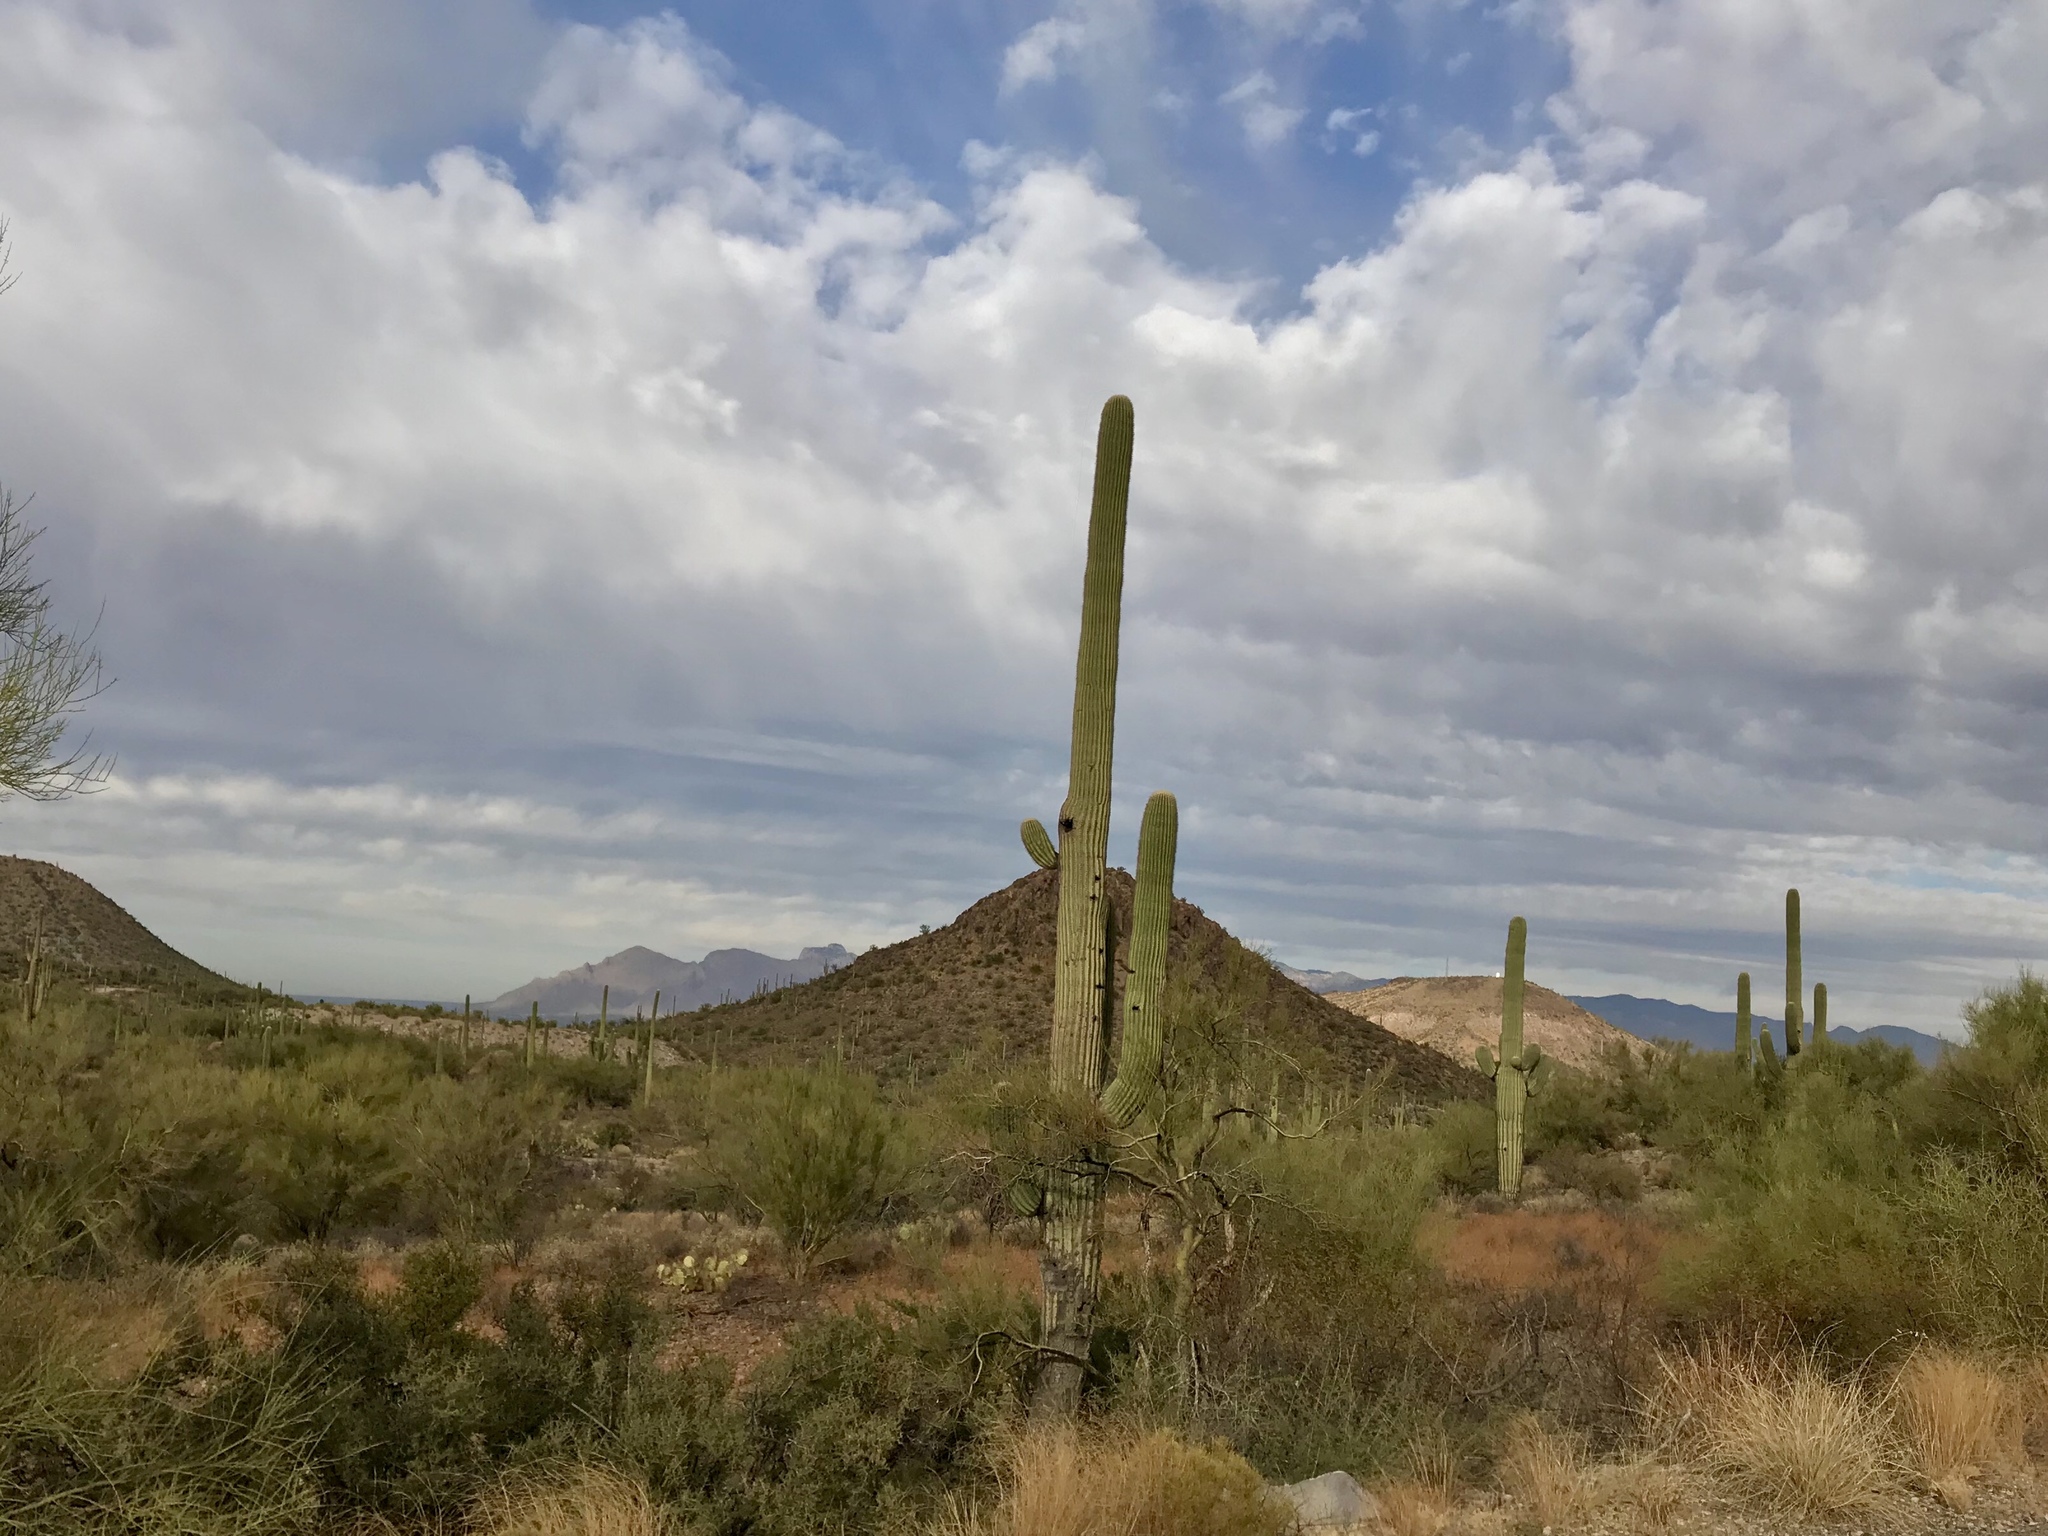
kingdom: Plantae
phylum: Tracheophyta
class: Magnoliopsida
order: Caryophyllales
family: Cactaceae
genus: Carnegiea
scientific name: Carnegiea gigantea
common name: Saguaro
